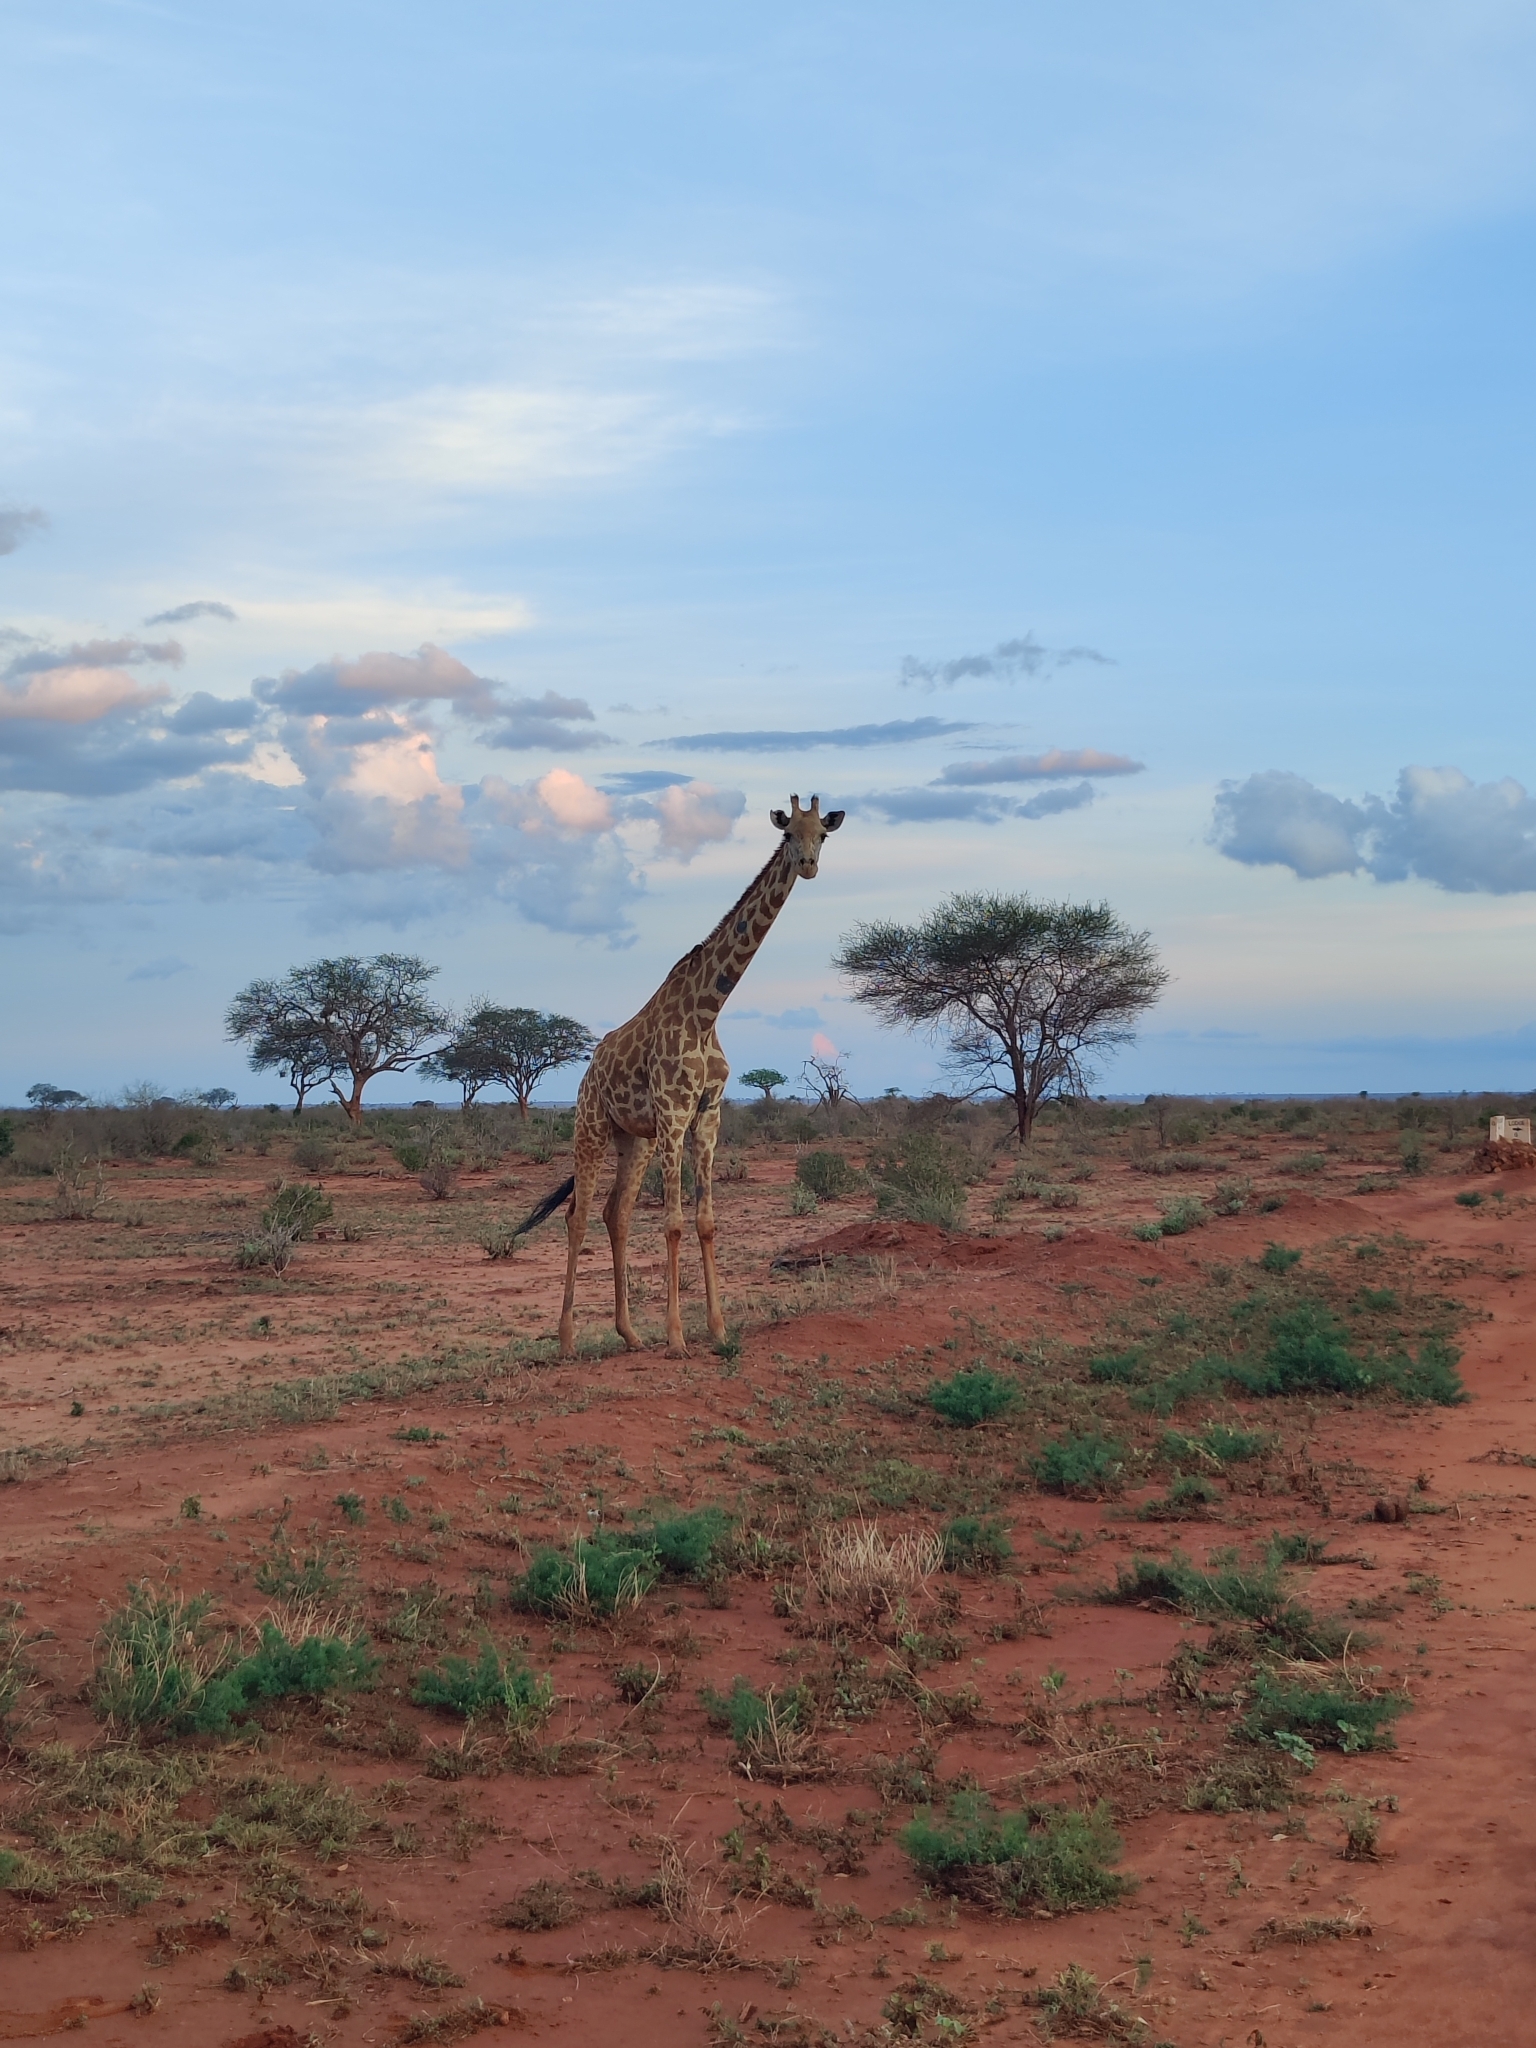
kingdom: Animalia
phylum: Chordata
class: Mammalia
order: Artiodactyla
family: Giraffidae
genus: Giraffa
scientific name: Giraffa tippelskirchi
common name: Masai giraffe
